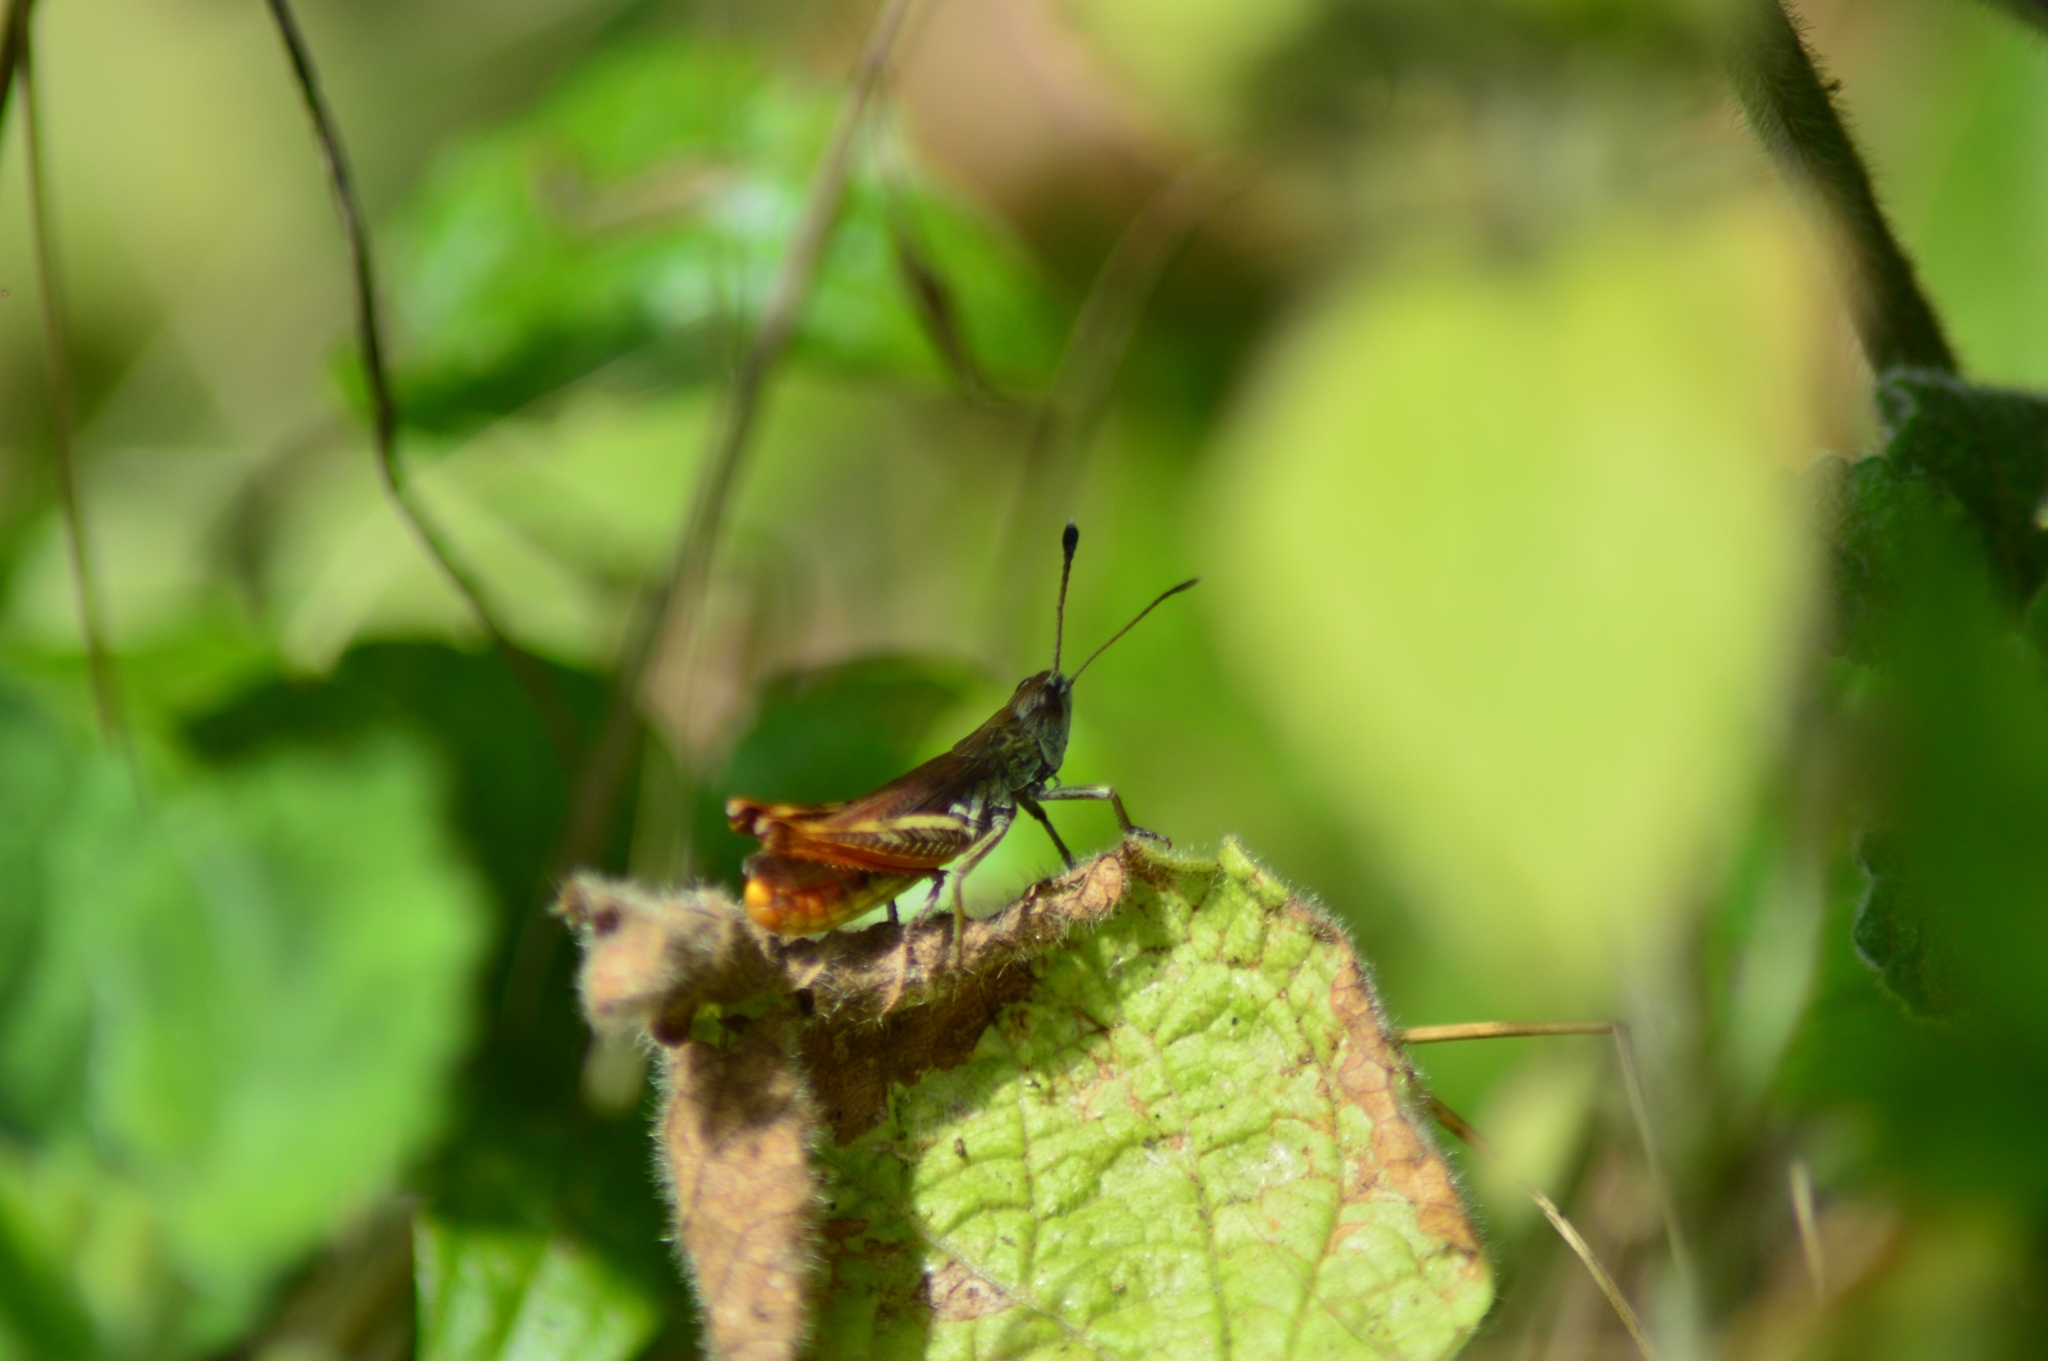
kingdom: Animalia
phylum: Arthropoda
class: Insecta
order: Orthoptera
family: Acrididae
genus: Gomphocerippus
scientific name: Gomphocerippus rufus
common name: Rufous grasshopper
